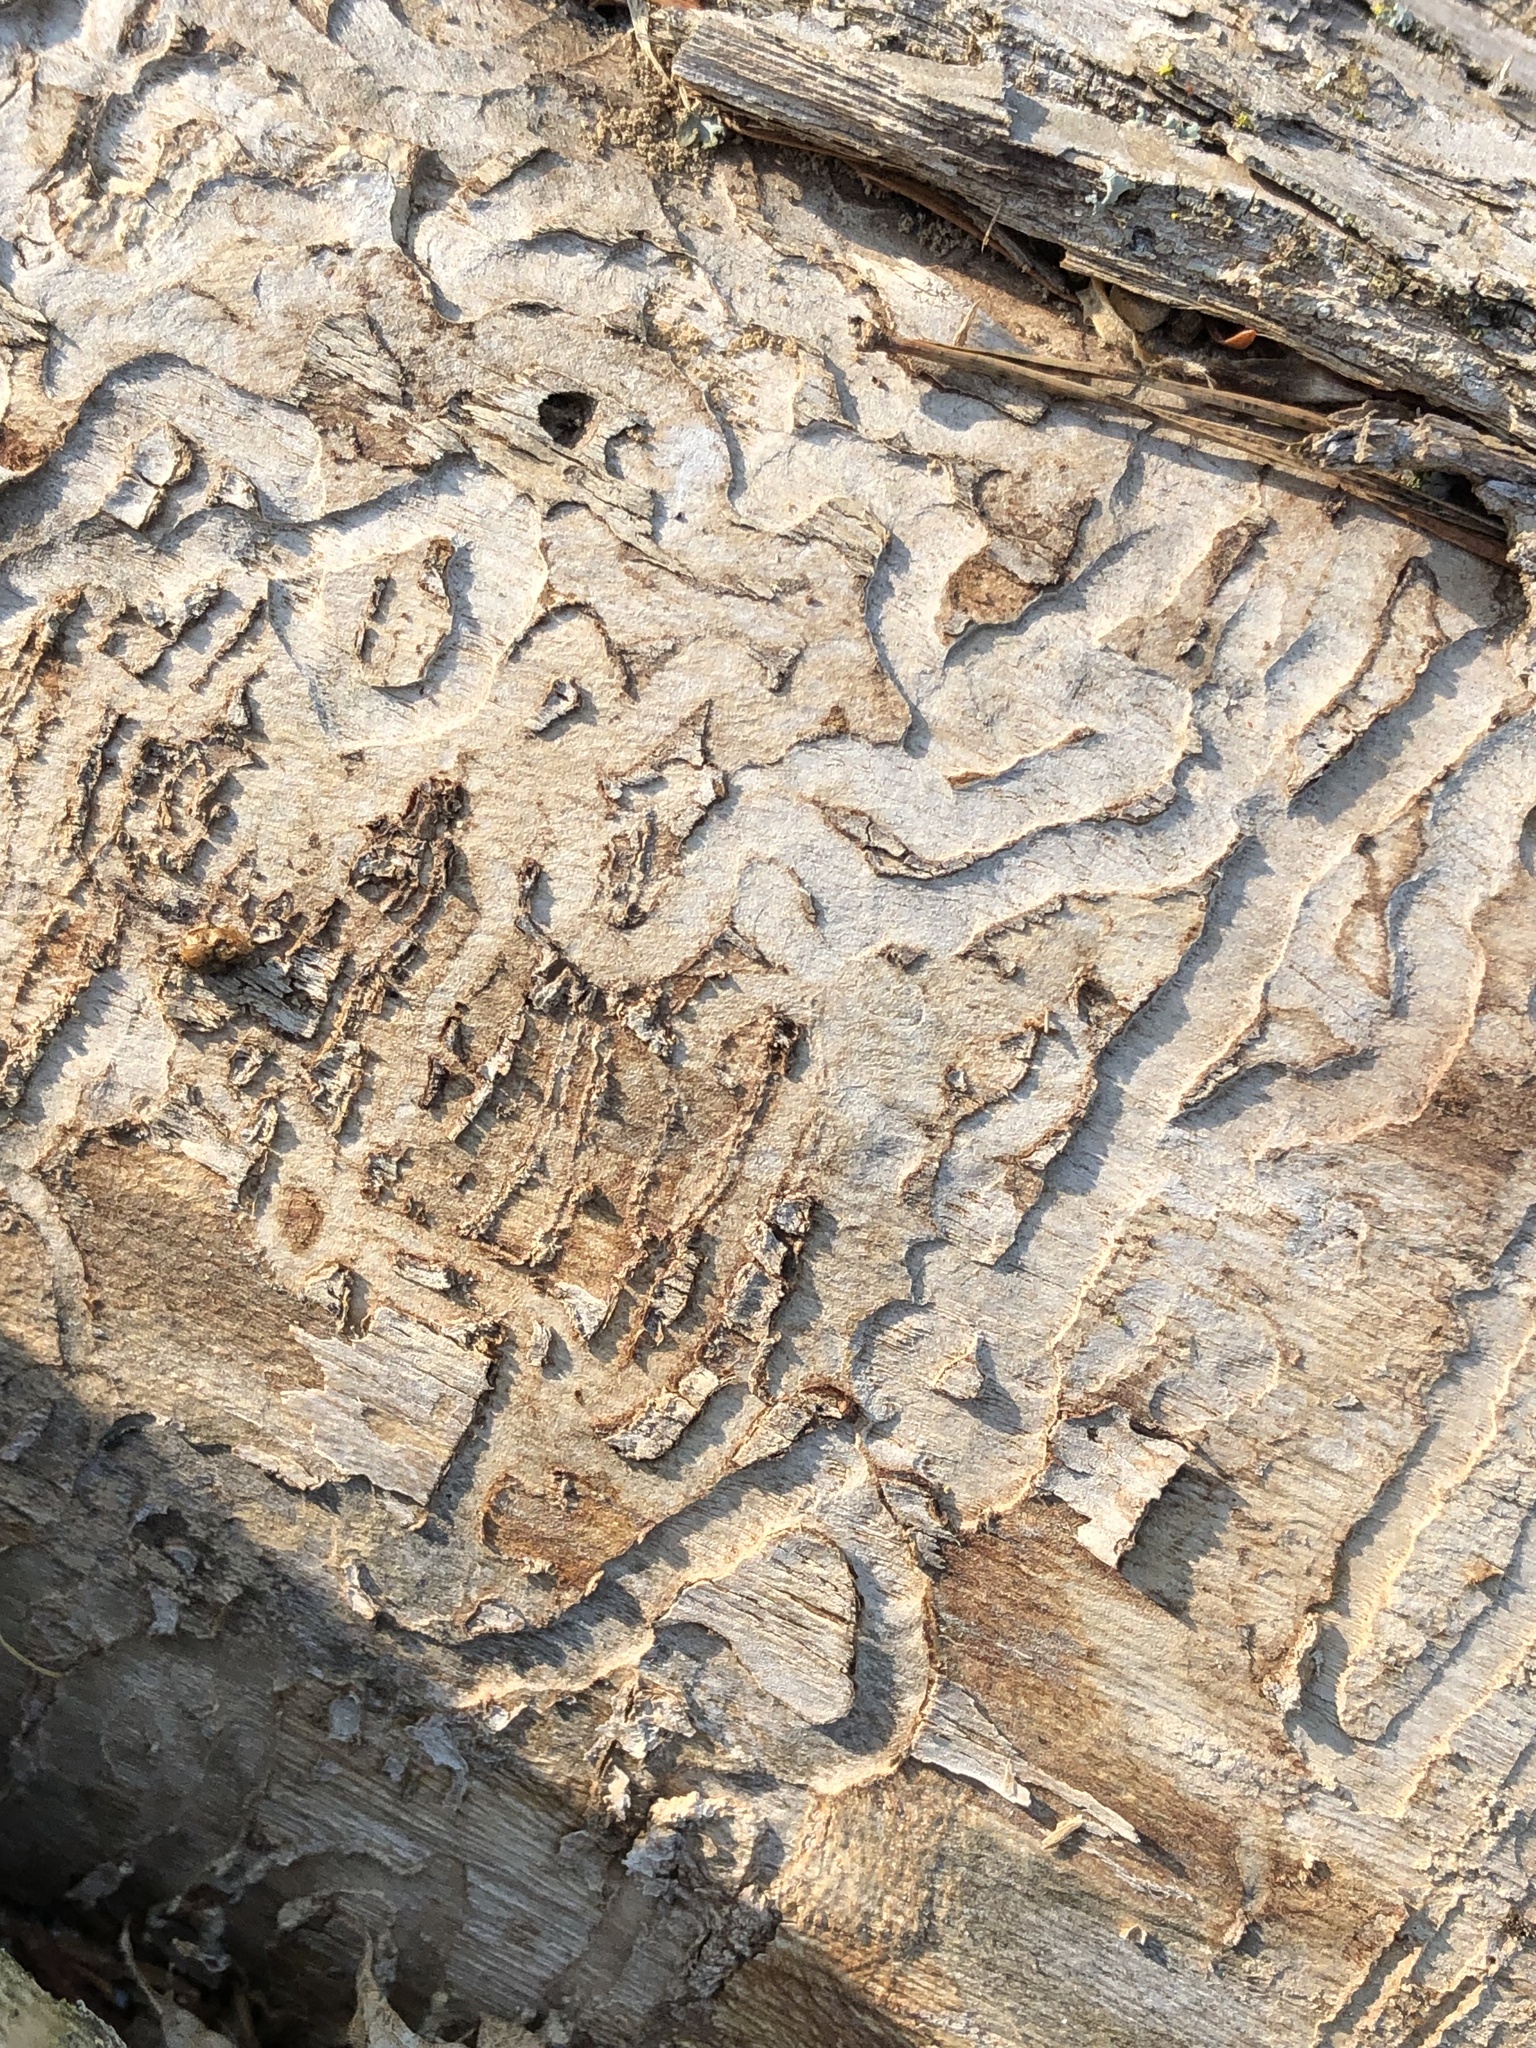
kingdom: Animalia
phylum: Arthropoda
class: Insecta
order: Coleoptera
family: Buprestidae
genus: Agrilus
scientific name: Agrilus planipennis
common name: Emerald ash borer
